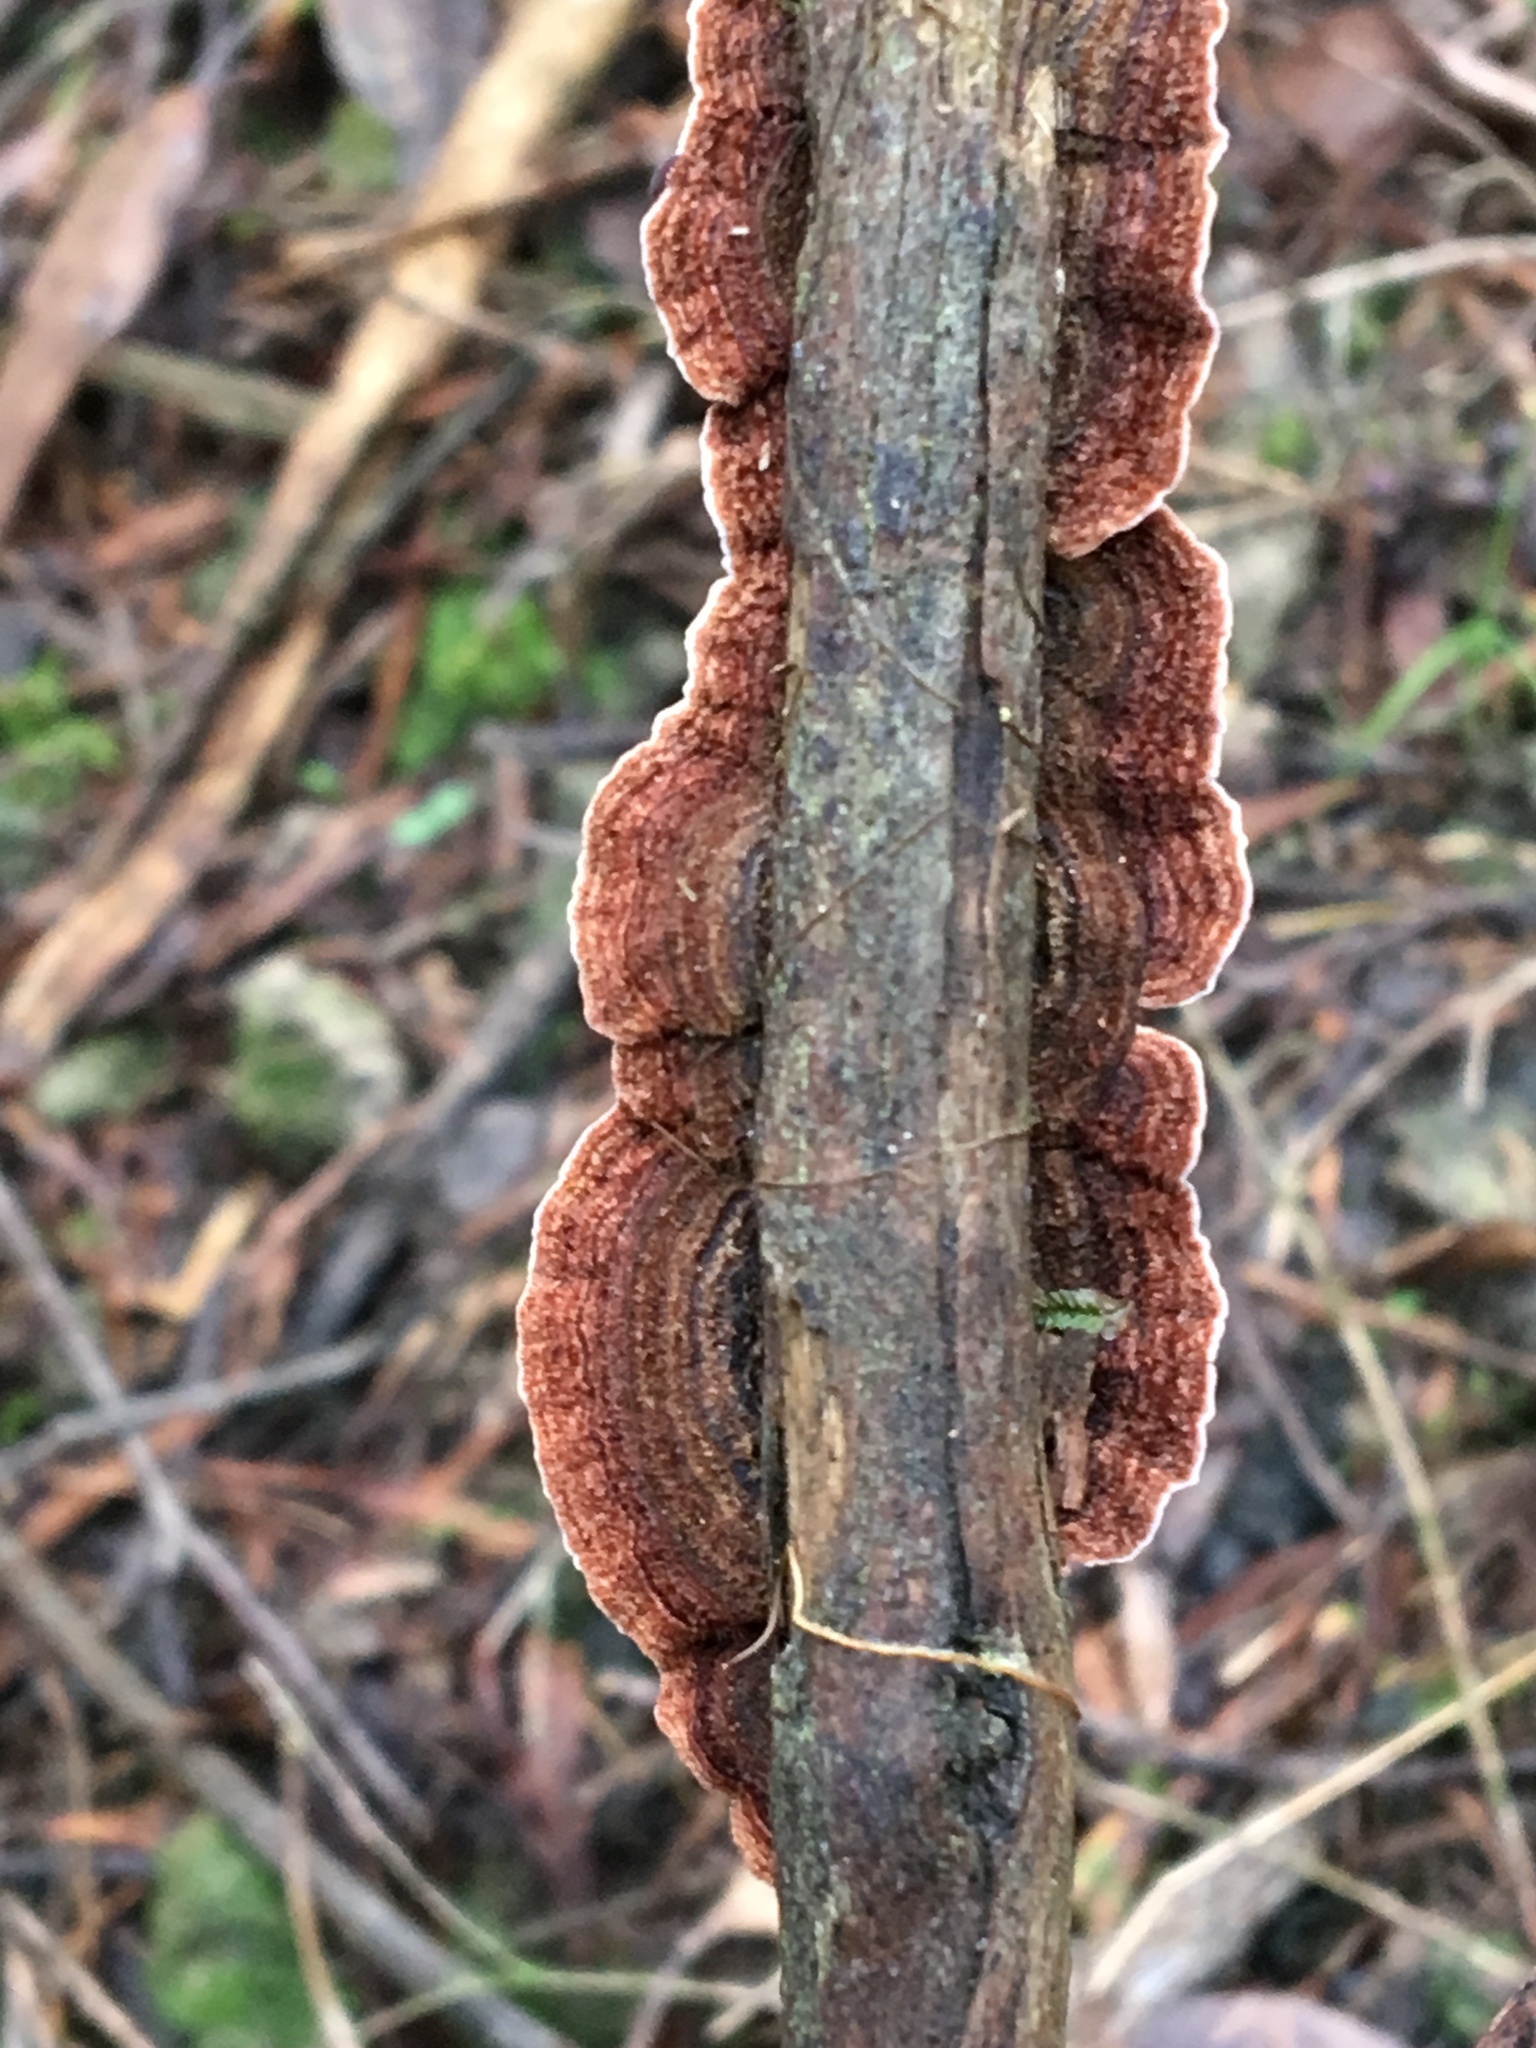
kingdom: Fungi
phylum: Basidiomycota
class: Agaricomycetes
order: Russulales
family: Stereaceae
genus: Xylobolus
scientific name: Xylobolus illudens
